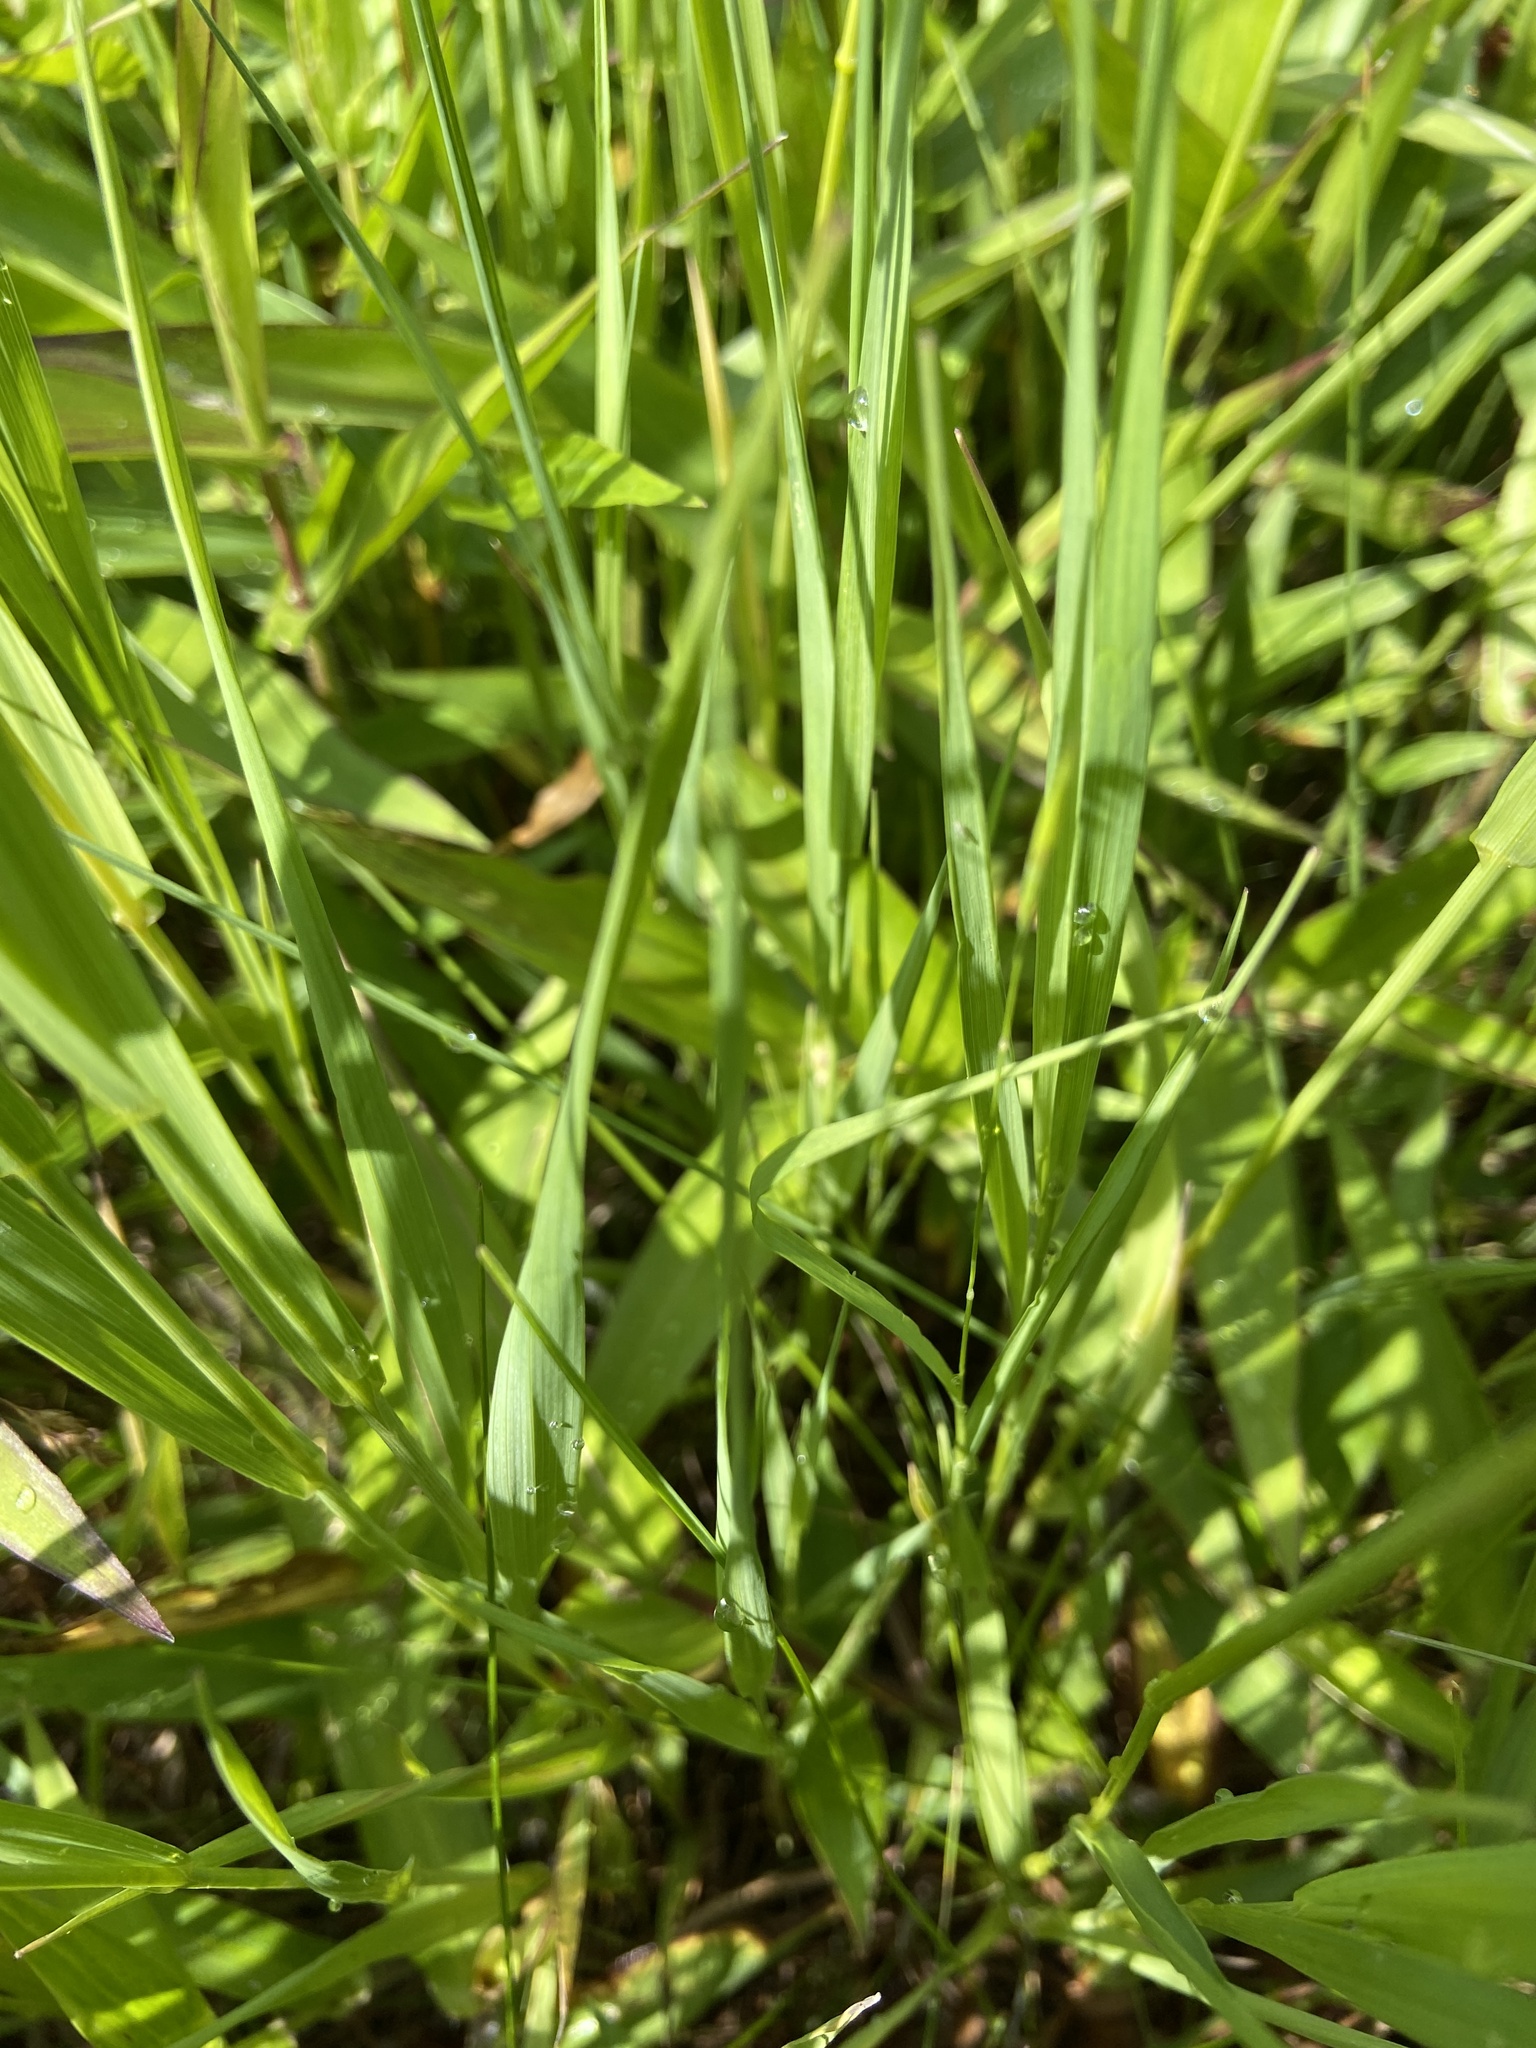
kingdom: Plantae
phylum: Tracheophyta
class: Liliopsida
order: Poales
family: Poaceae
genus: Bromus
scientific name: Bromus inermis
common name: Smooth brome
